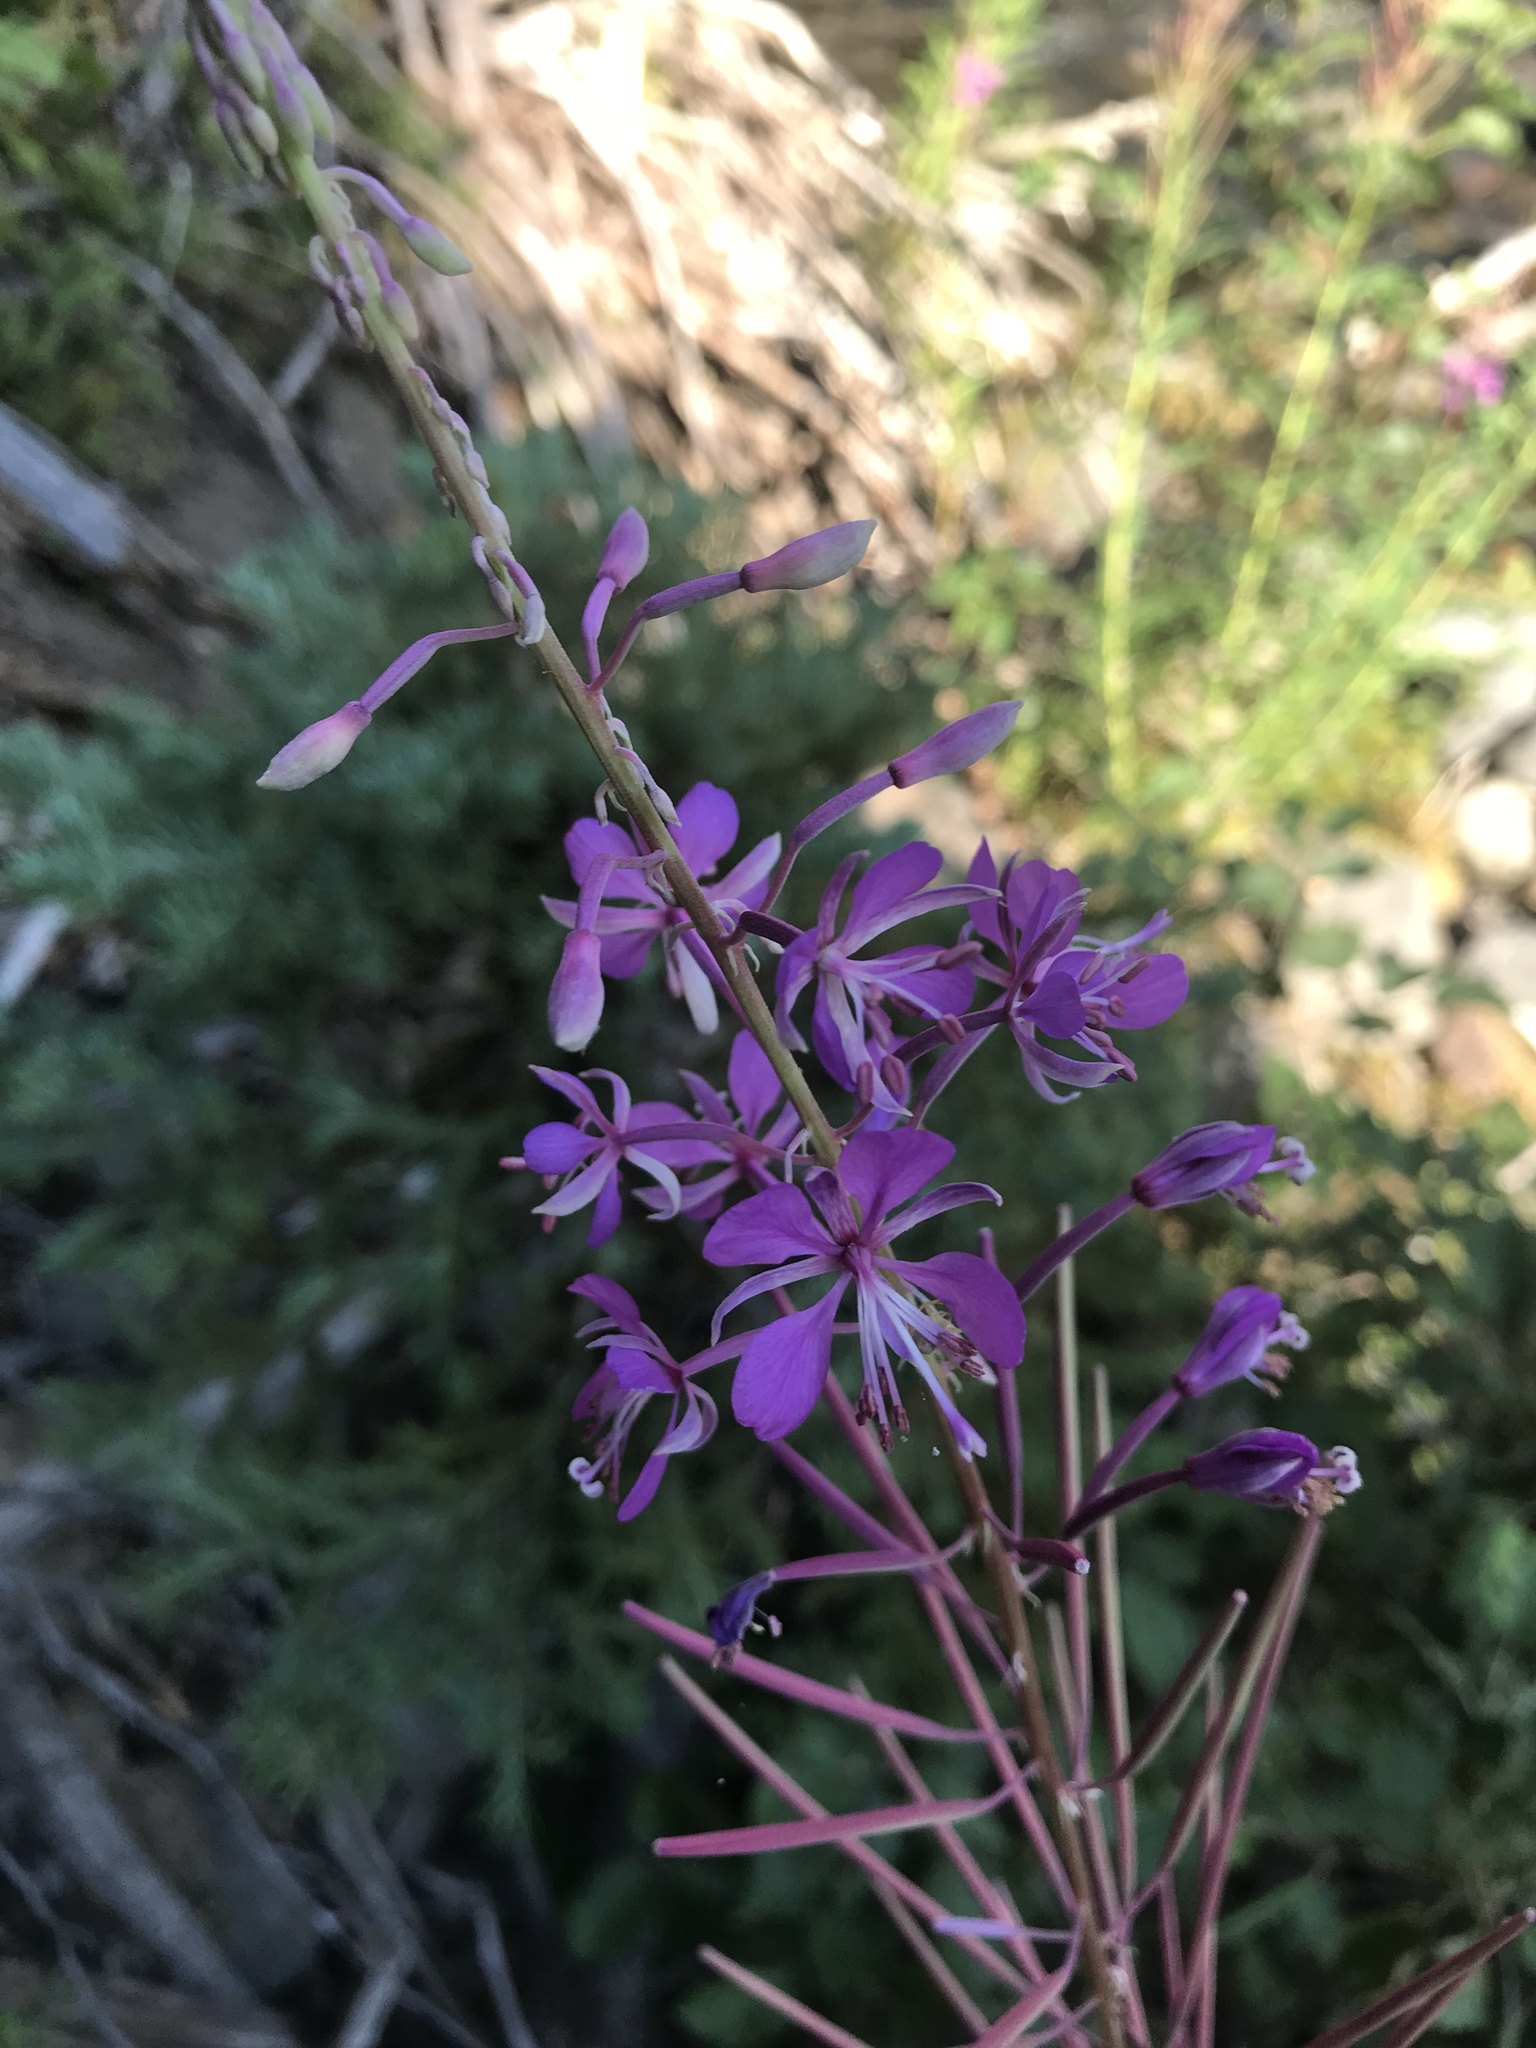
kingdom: Plantae
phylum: Tracheophyta
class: Magnoliopsida
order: Myrtales
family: Onagraceae
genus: Chamaenerion
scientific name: Chamaenerion angustifolium
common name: Fireweed
